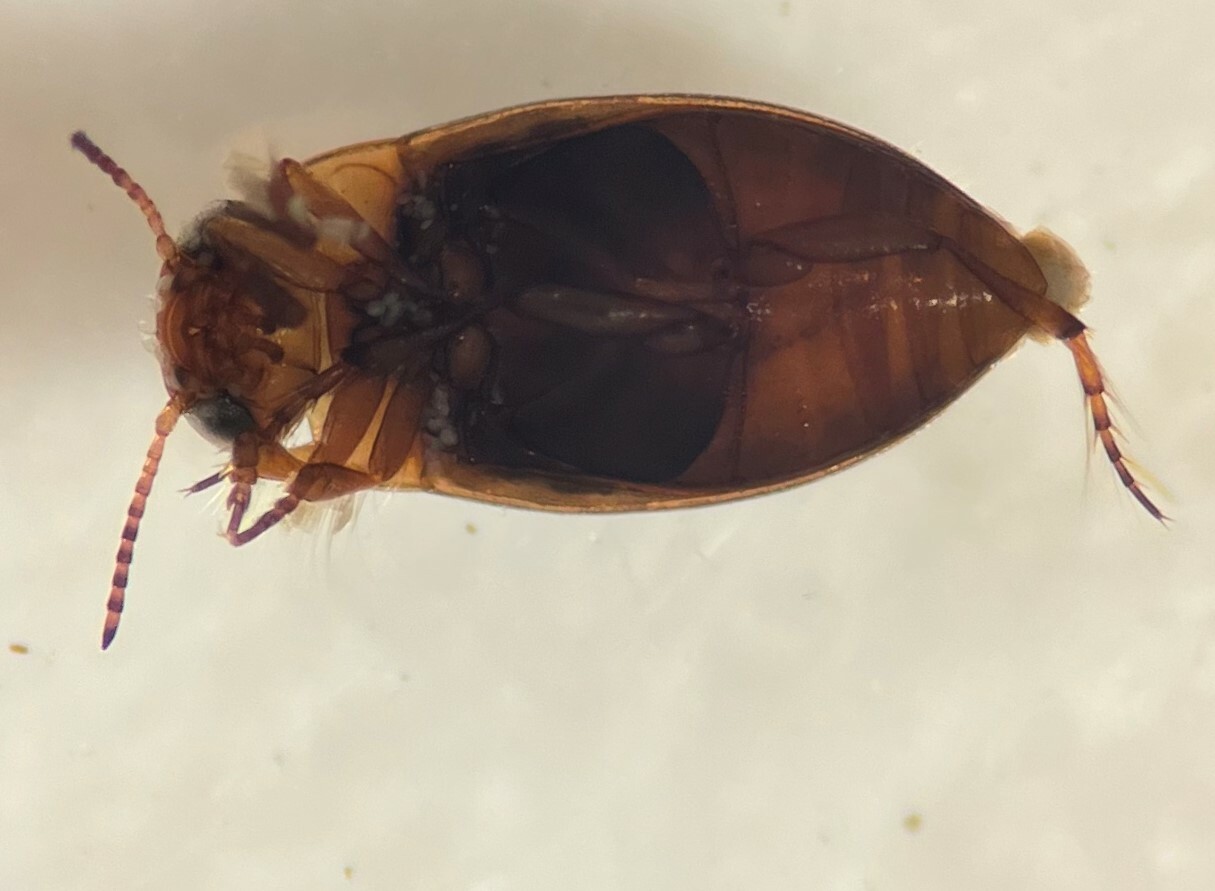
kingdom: Animalia
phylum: Arthropoda
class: Insecta
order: Coleoptera
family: Dytiscidae
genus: Liodessus
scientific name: Liodessus affinis
